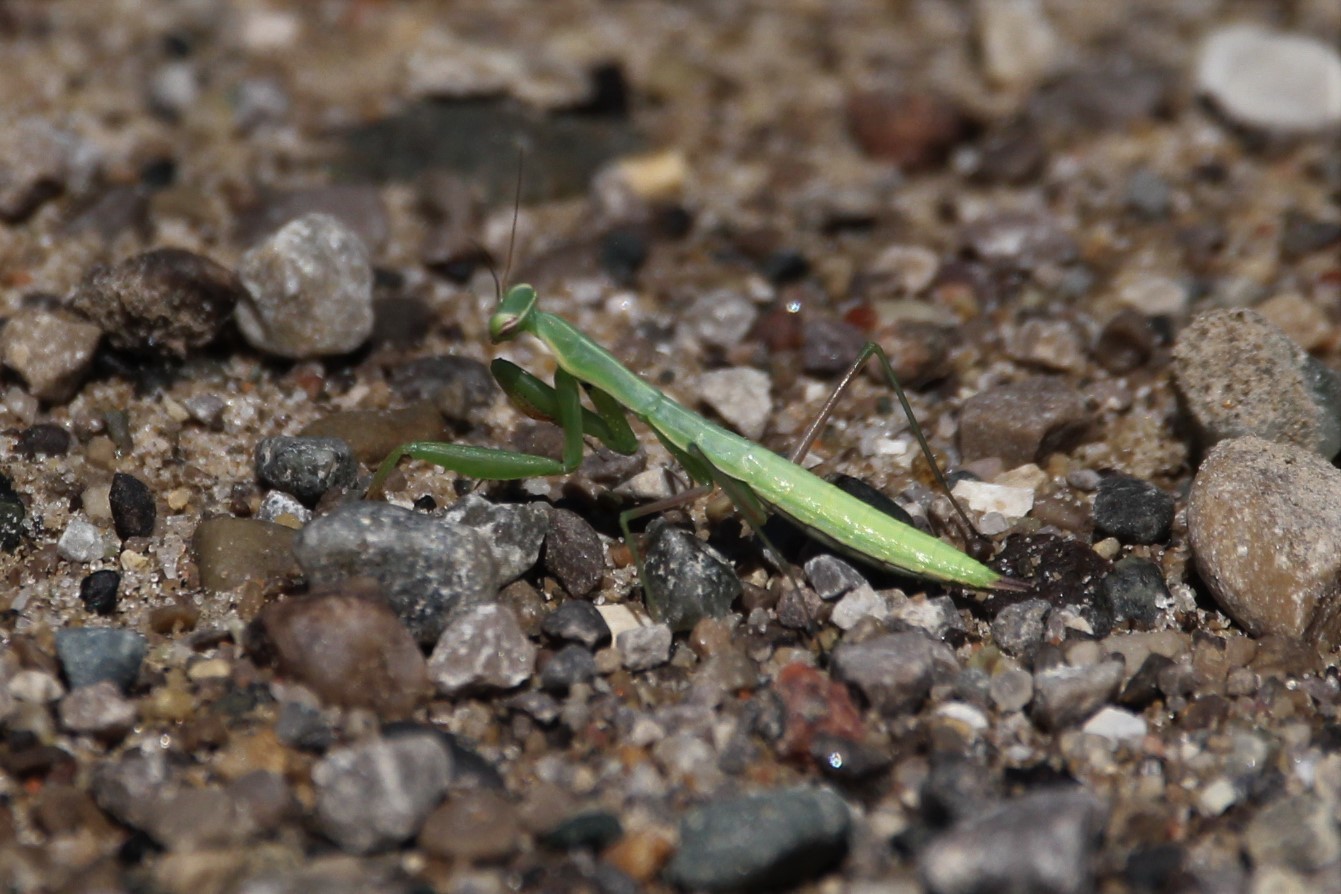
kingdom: Animalia
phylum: Arthropoda
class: Insecta
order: Mantodea
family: Mantidae
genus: Mantis
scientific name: Mantis religiosa
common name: Praying mantis
